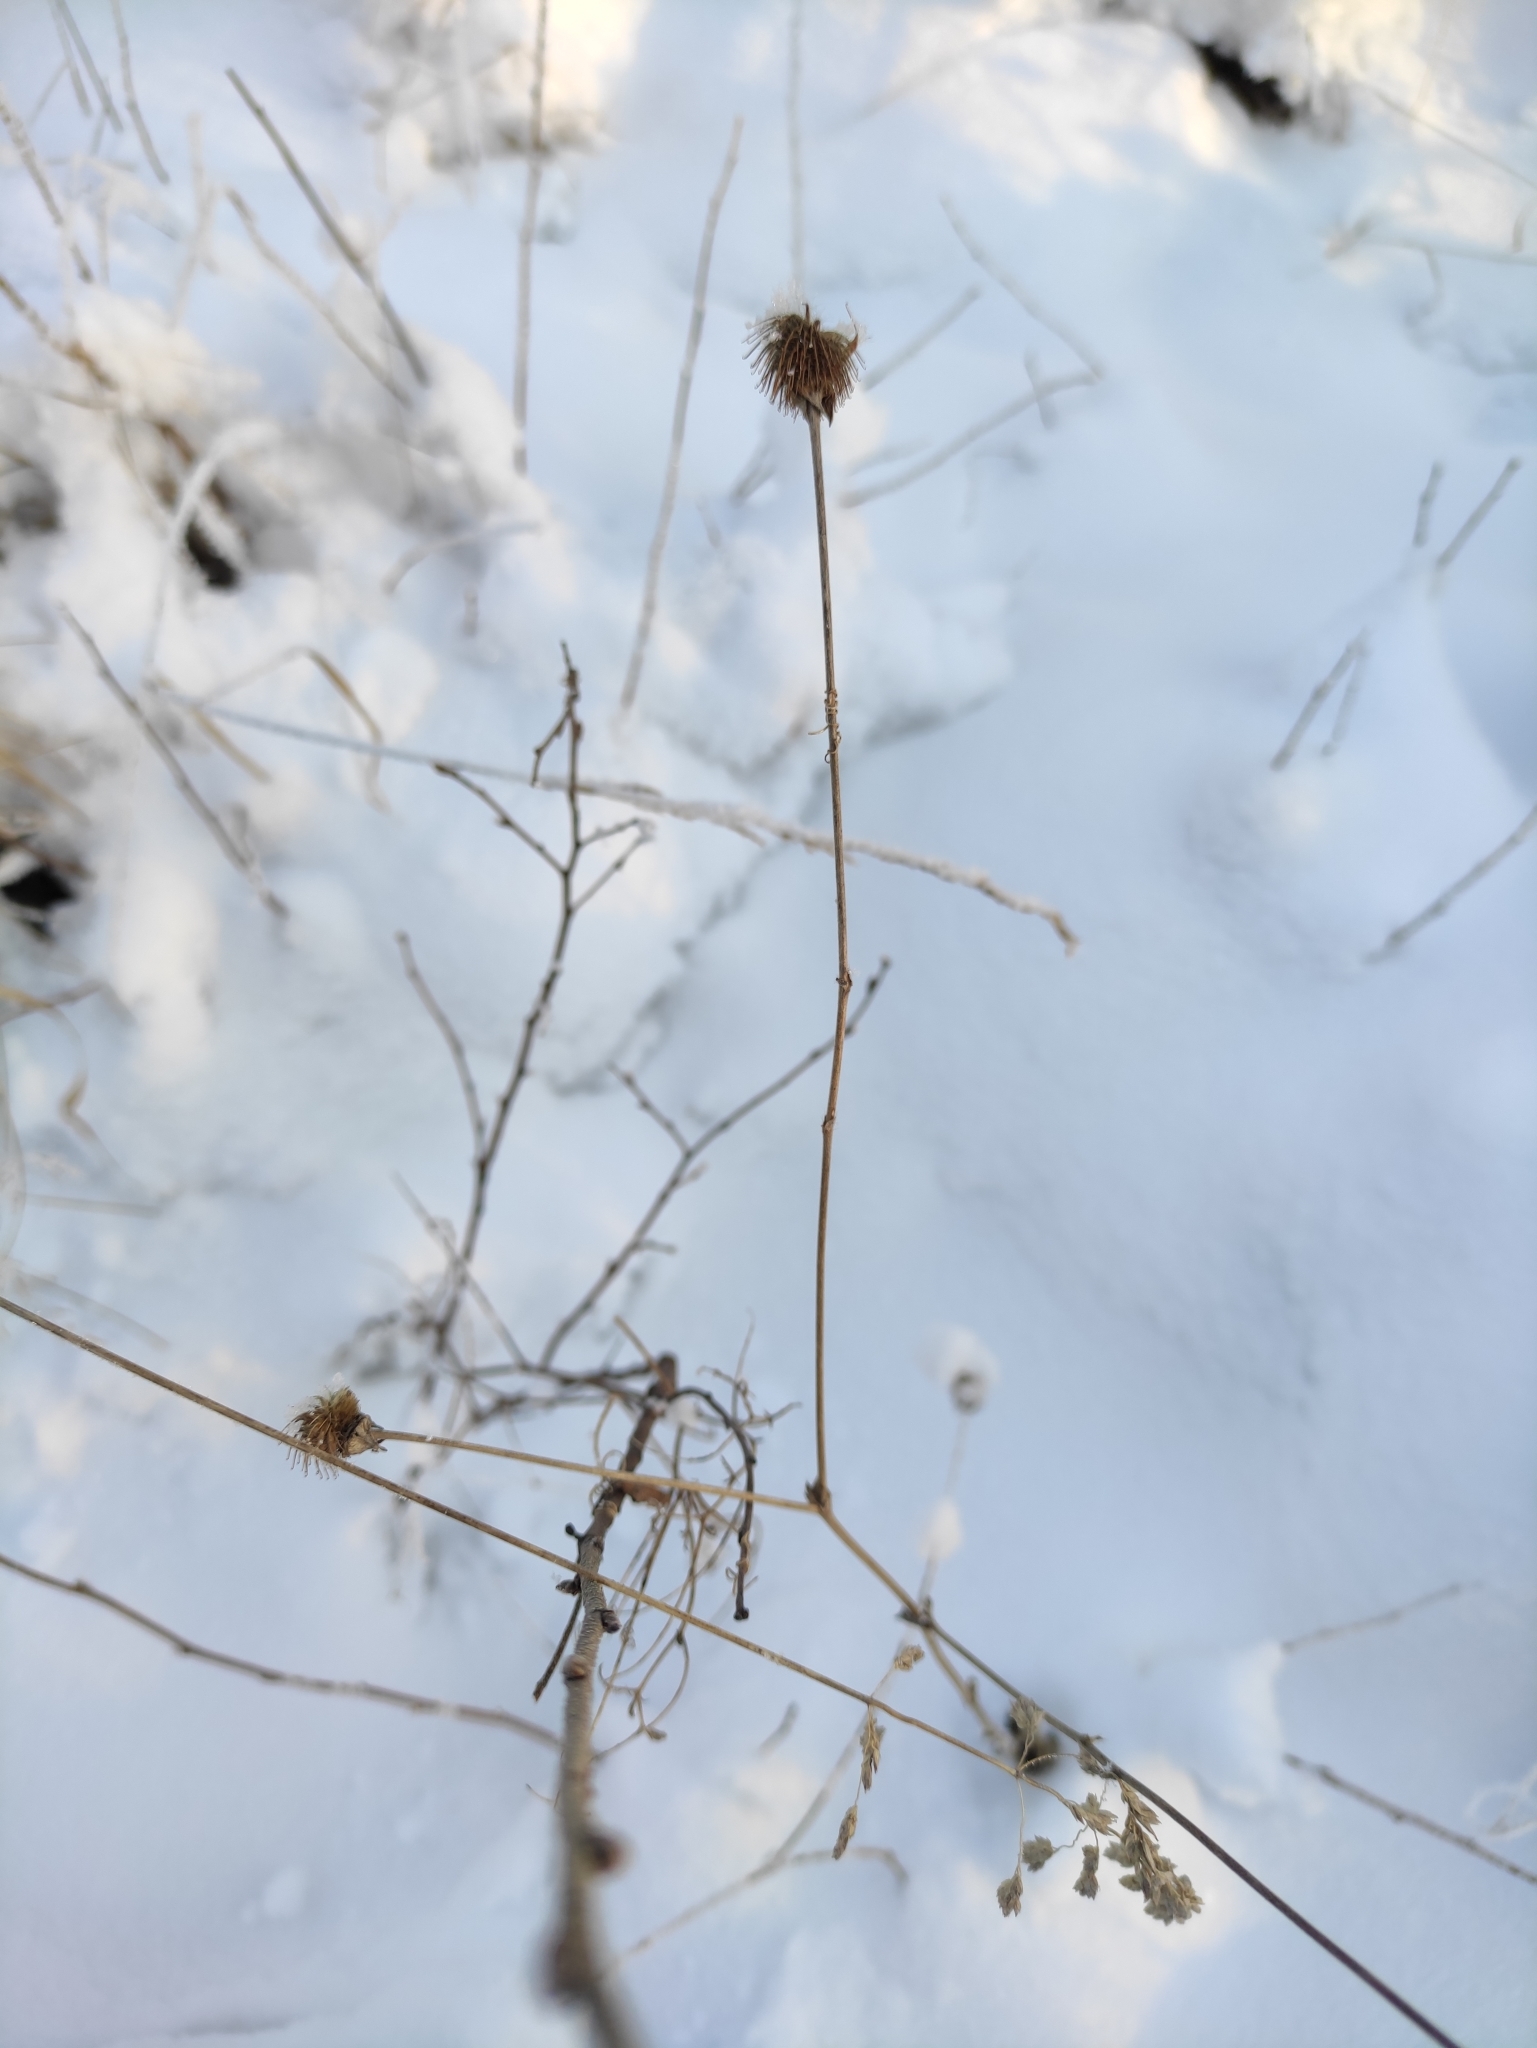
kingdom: Plantae
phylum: Tracheophyta
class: Magnoliopsida
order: Rosales
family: Rosaceae
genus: Geum
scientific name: Geum aleppicum
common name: Yellow avens
